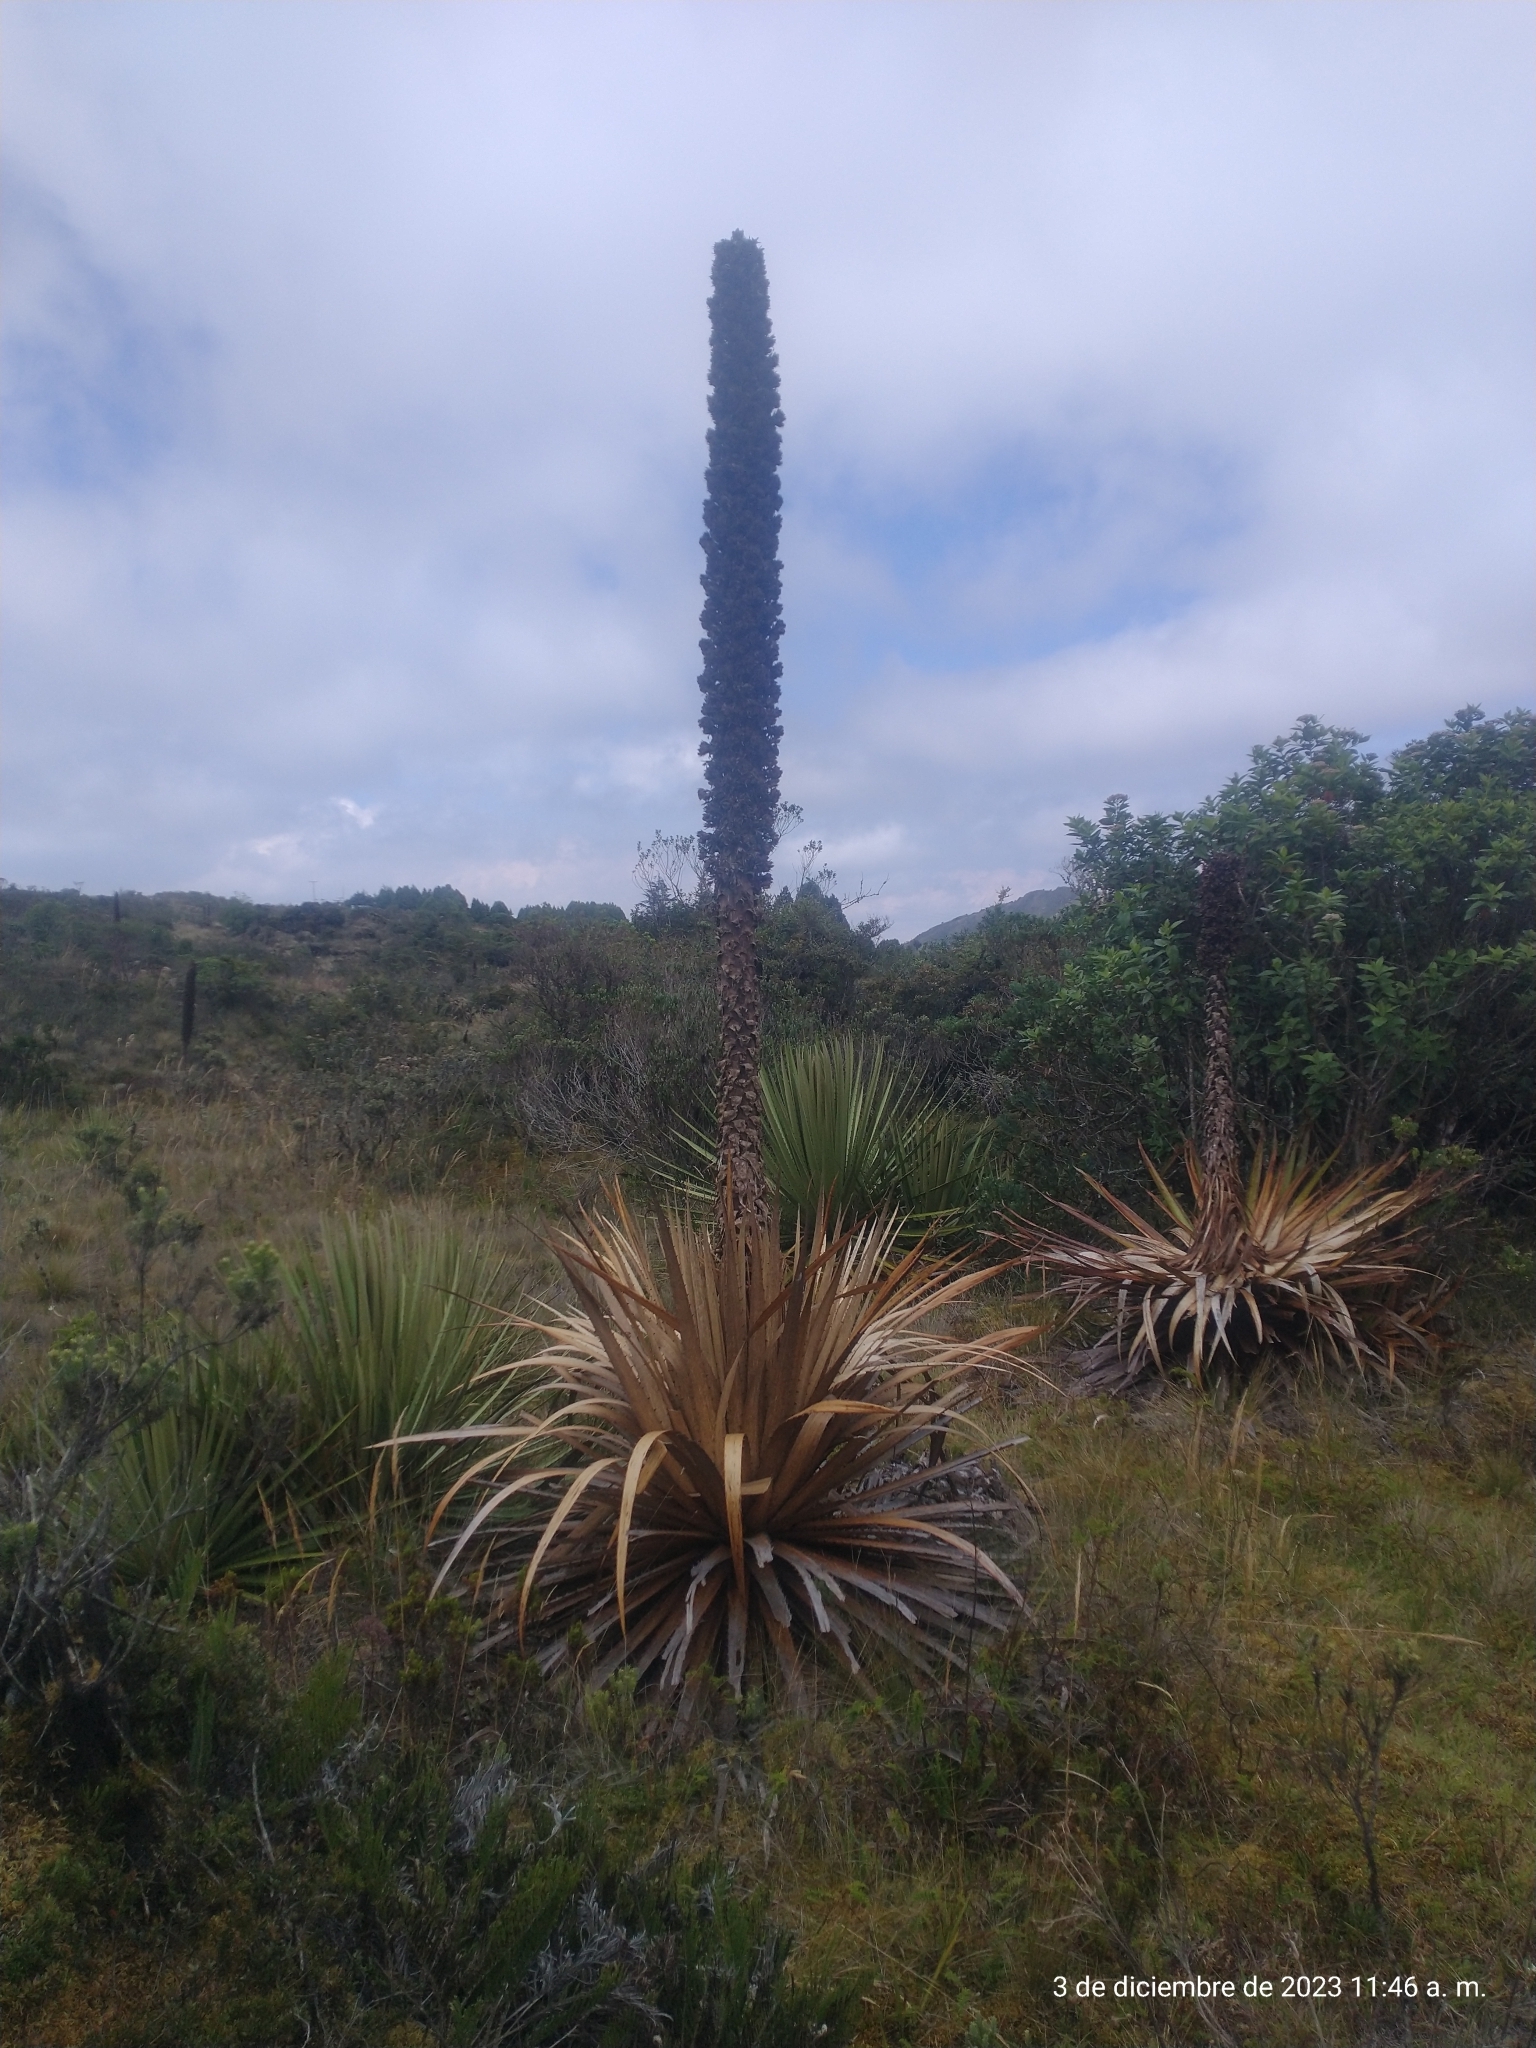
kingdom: Plantae
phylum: Tracheophyta
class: Liliopsida
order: Poales
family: Bromeliaceae
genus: Puya
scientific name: Puya goudotiana
